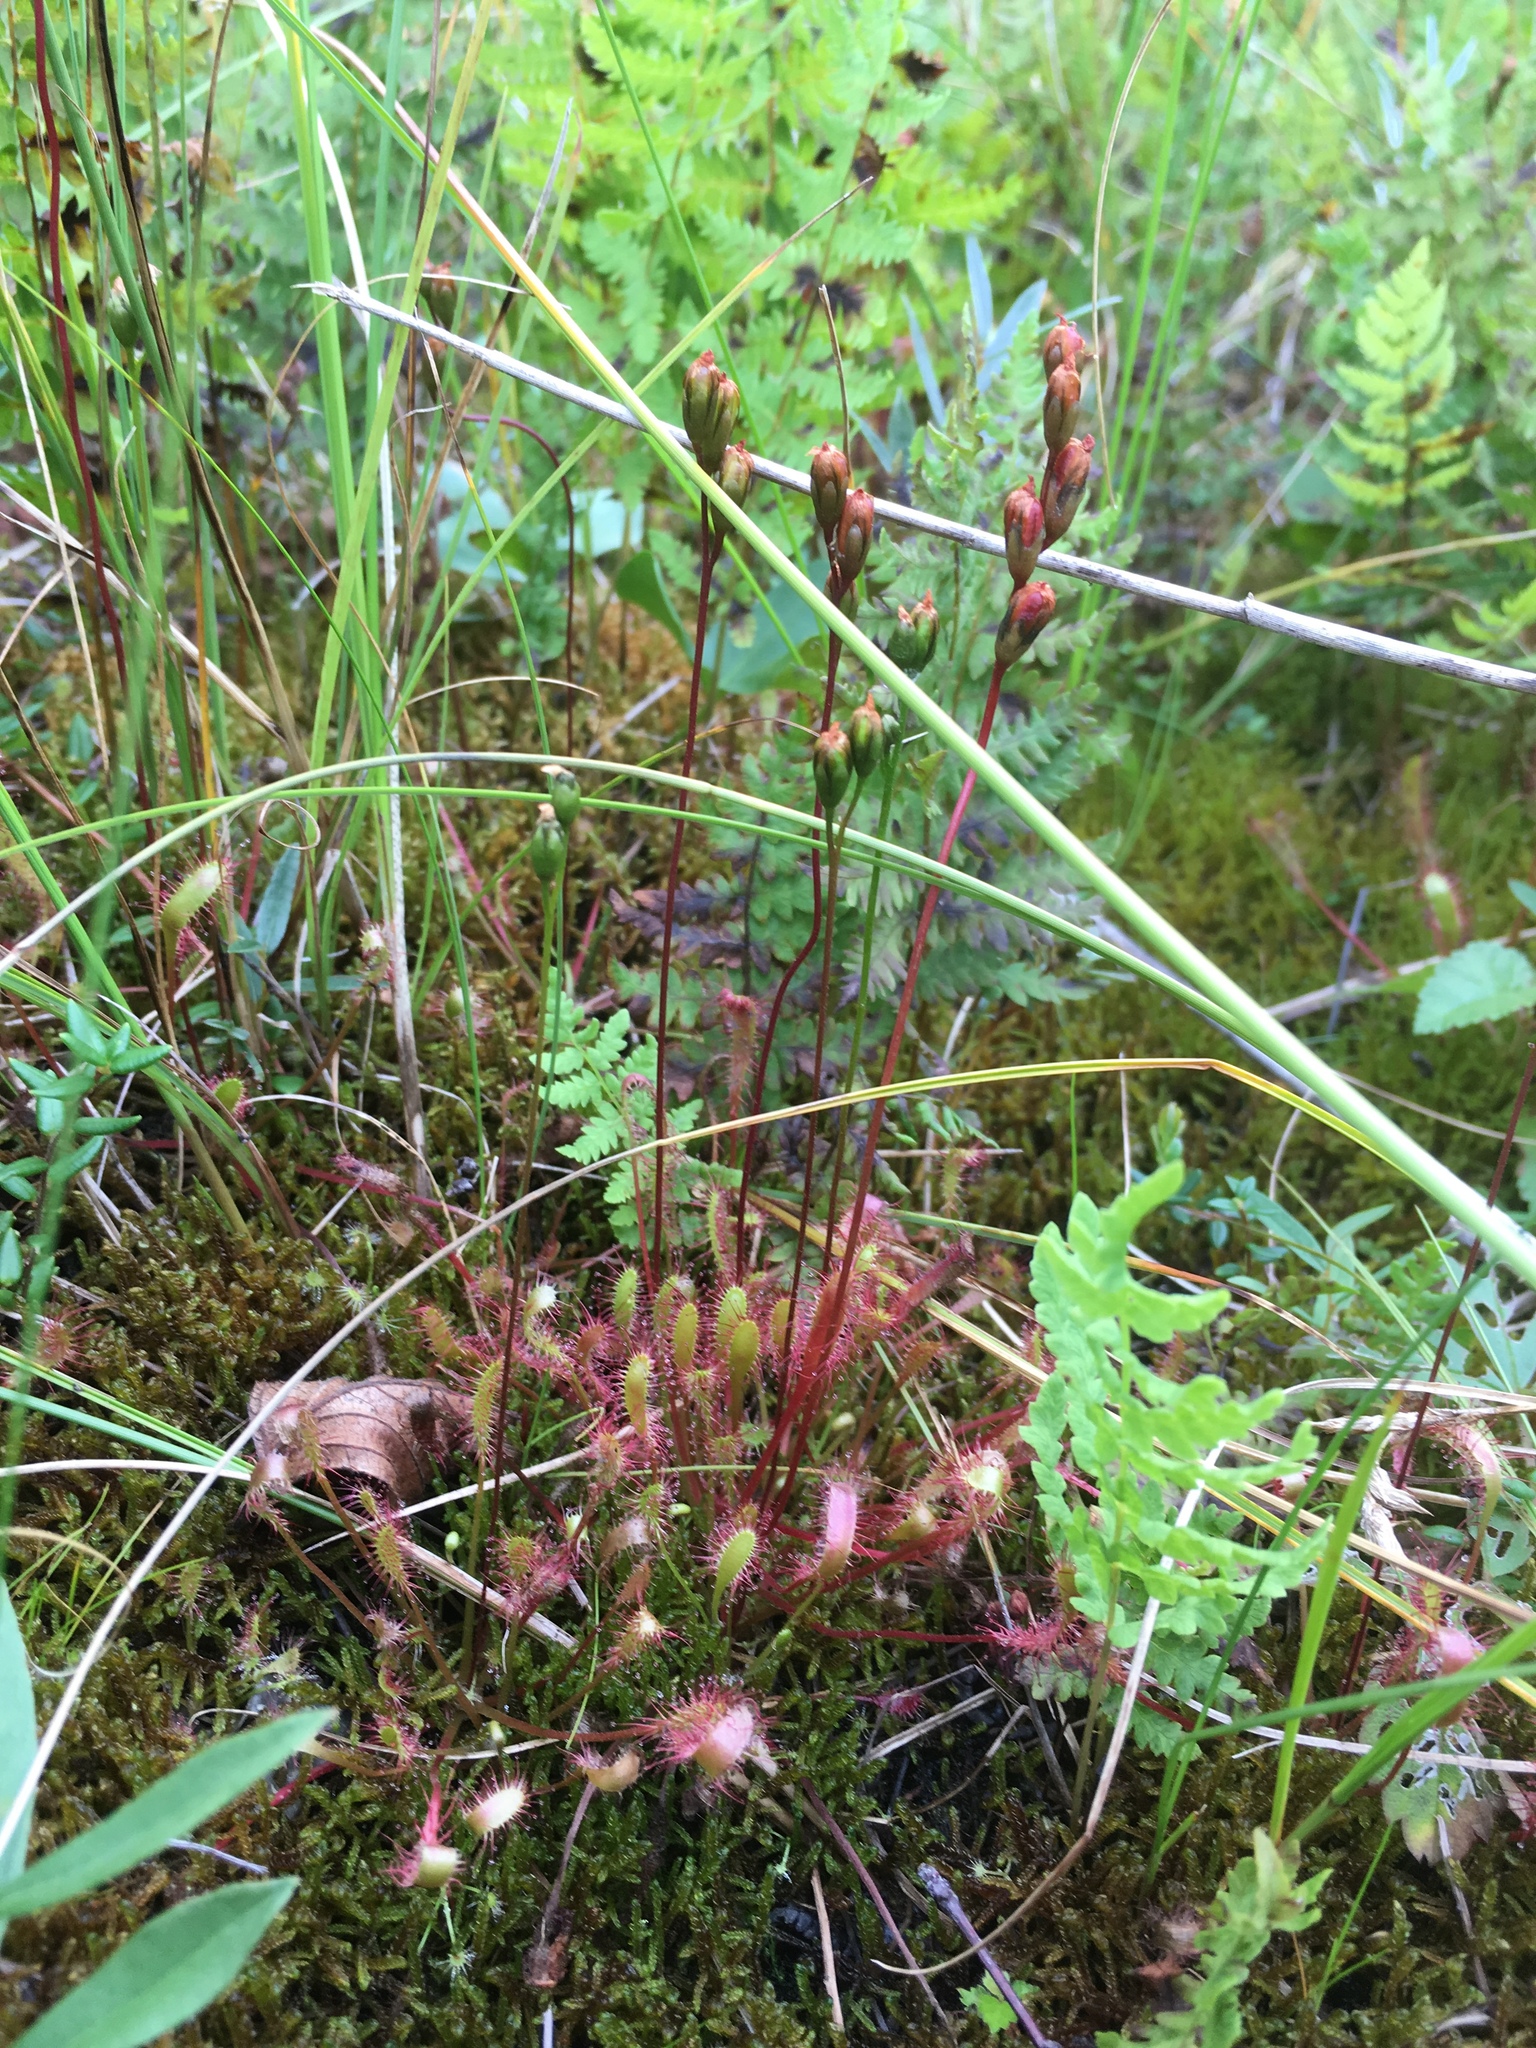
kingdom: Plantae
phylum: Tracheophyta
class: Magnoliopsida
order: Caryophyllales
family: Droseraceae
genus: Drosera
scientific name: Drosera anglica
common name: Great sundew
